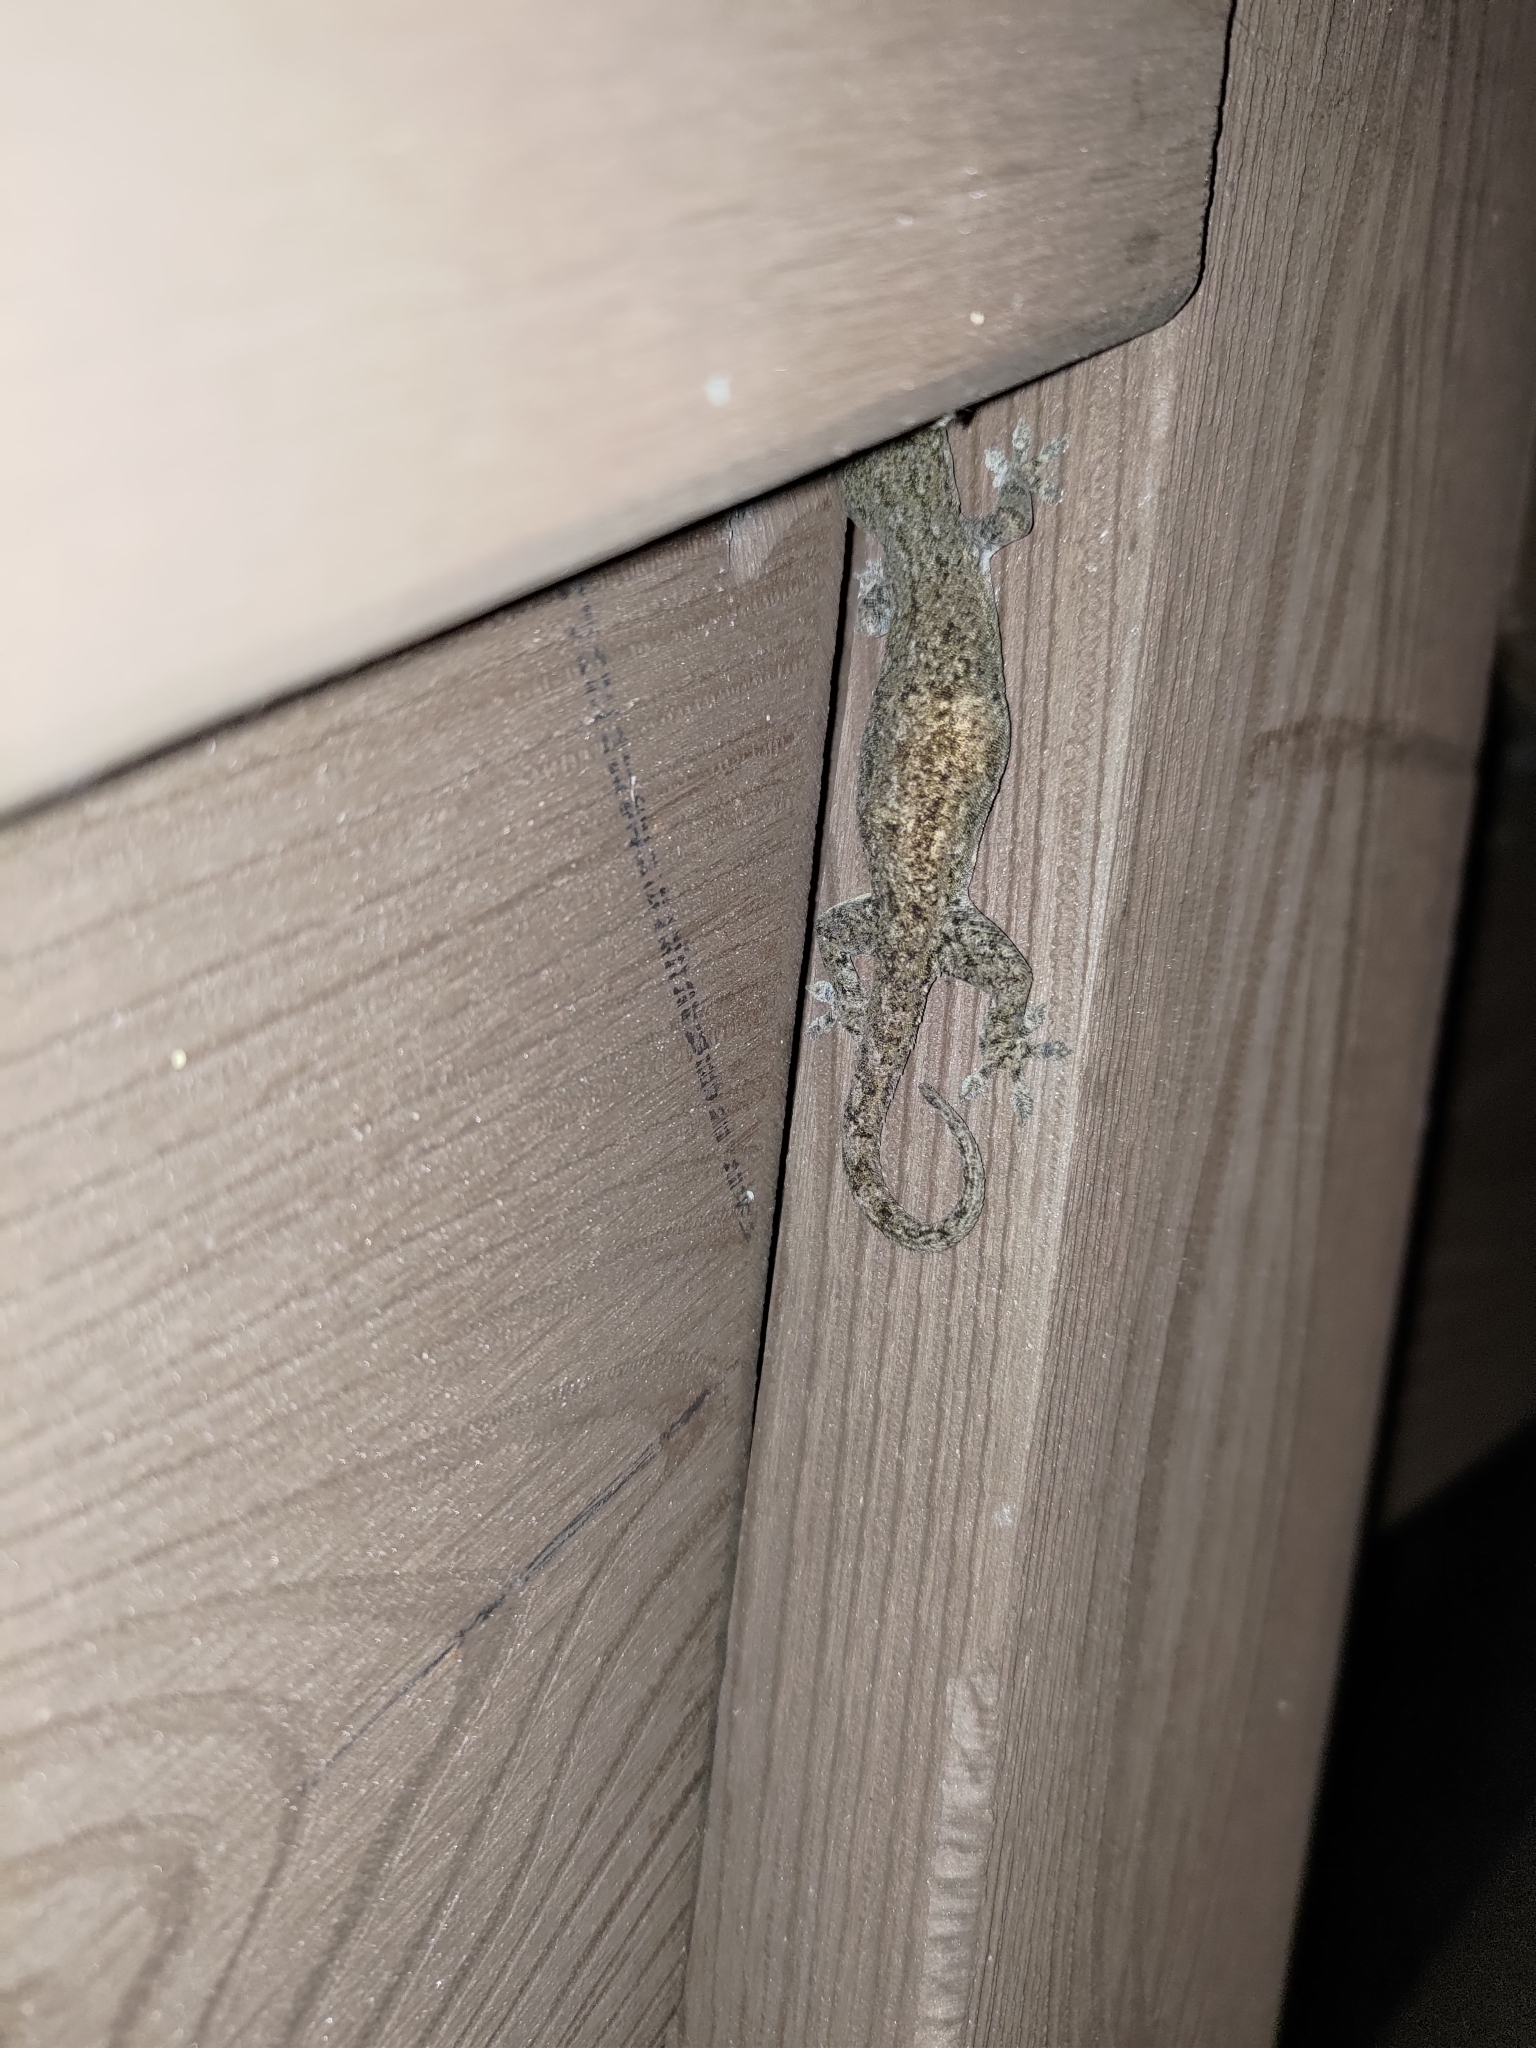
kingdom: Animalia
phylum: Chordata
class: Squamata
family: Gekkonidae
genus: Hemidactylus
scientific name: Hemidactylus frenatus
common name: Common house gecko
